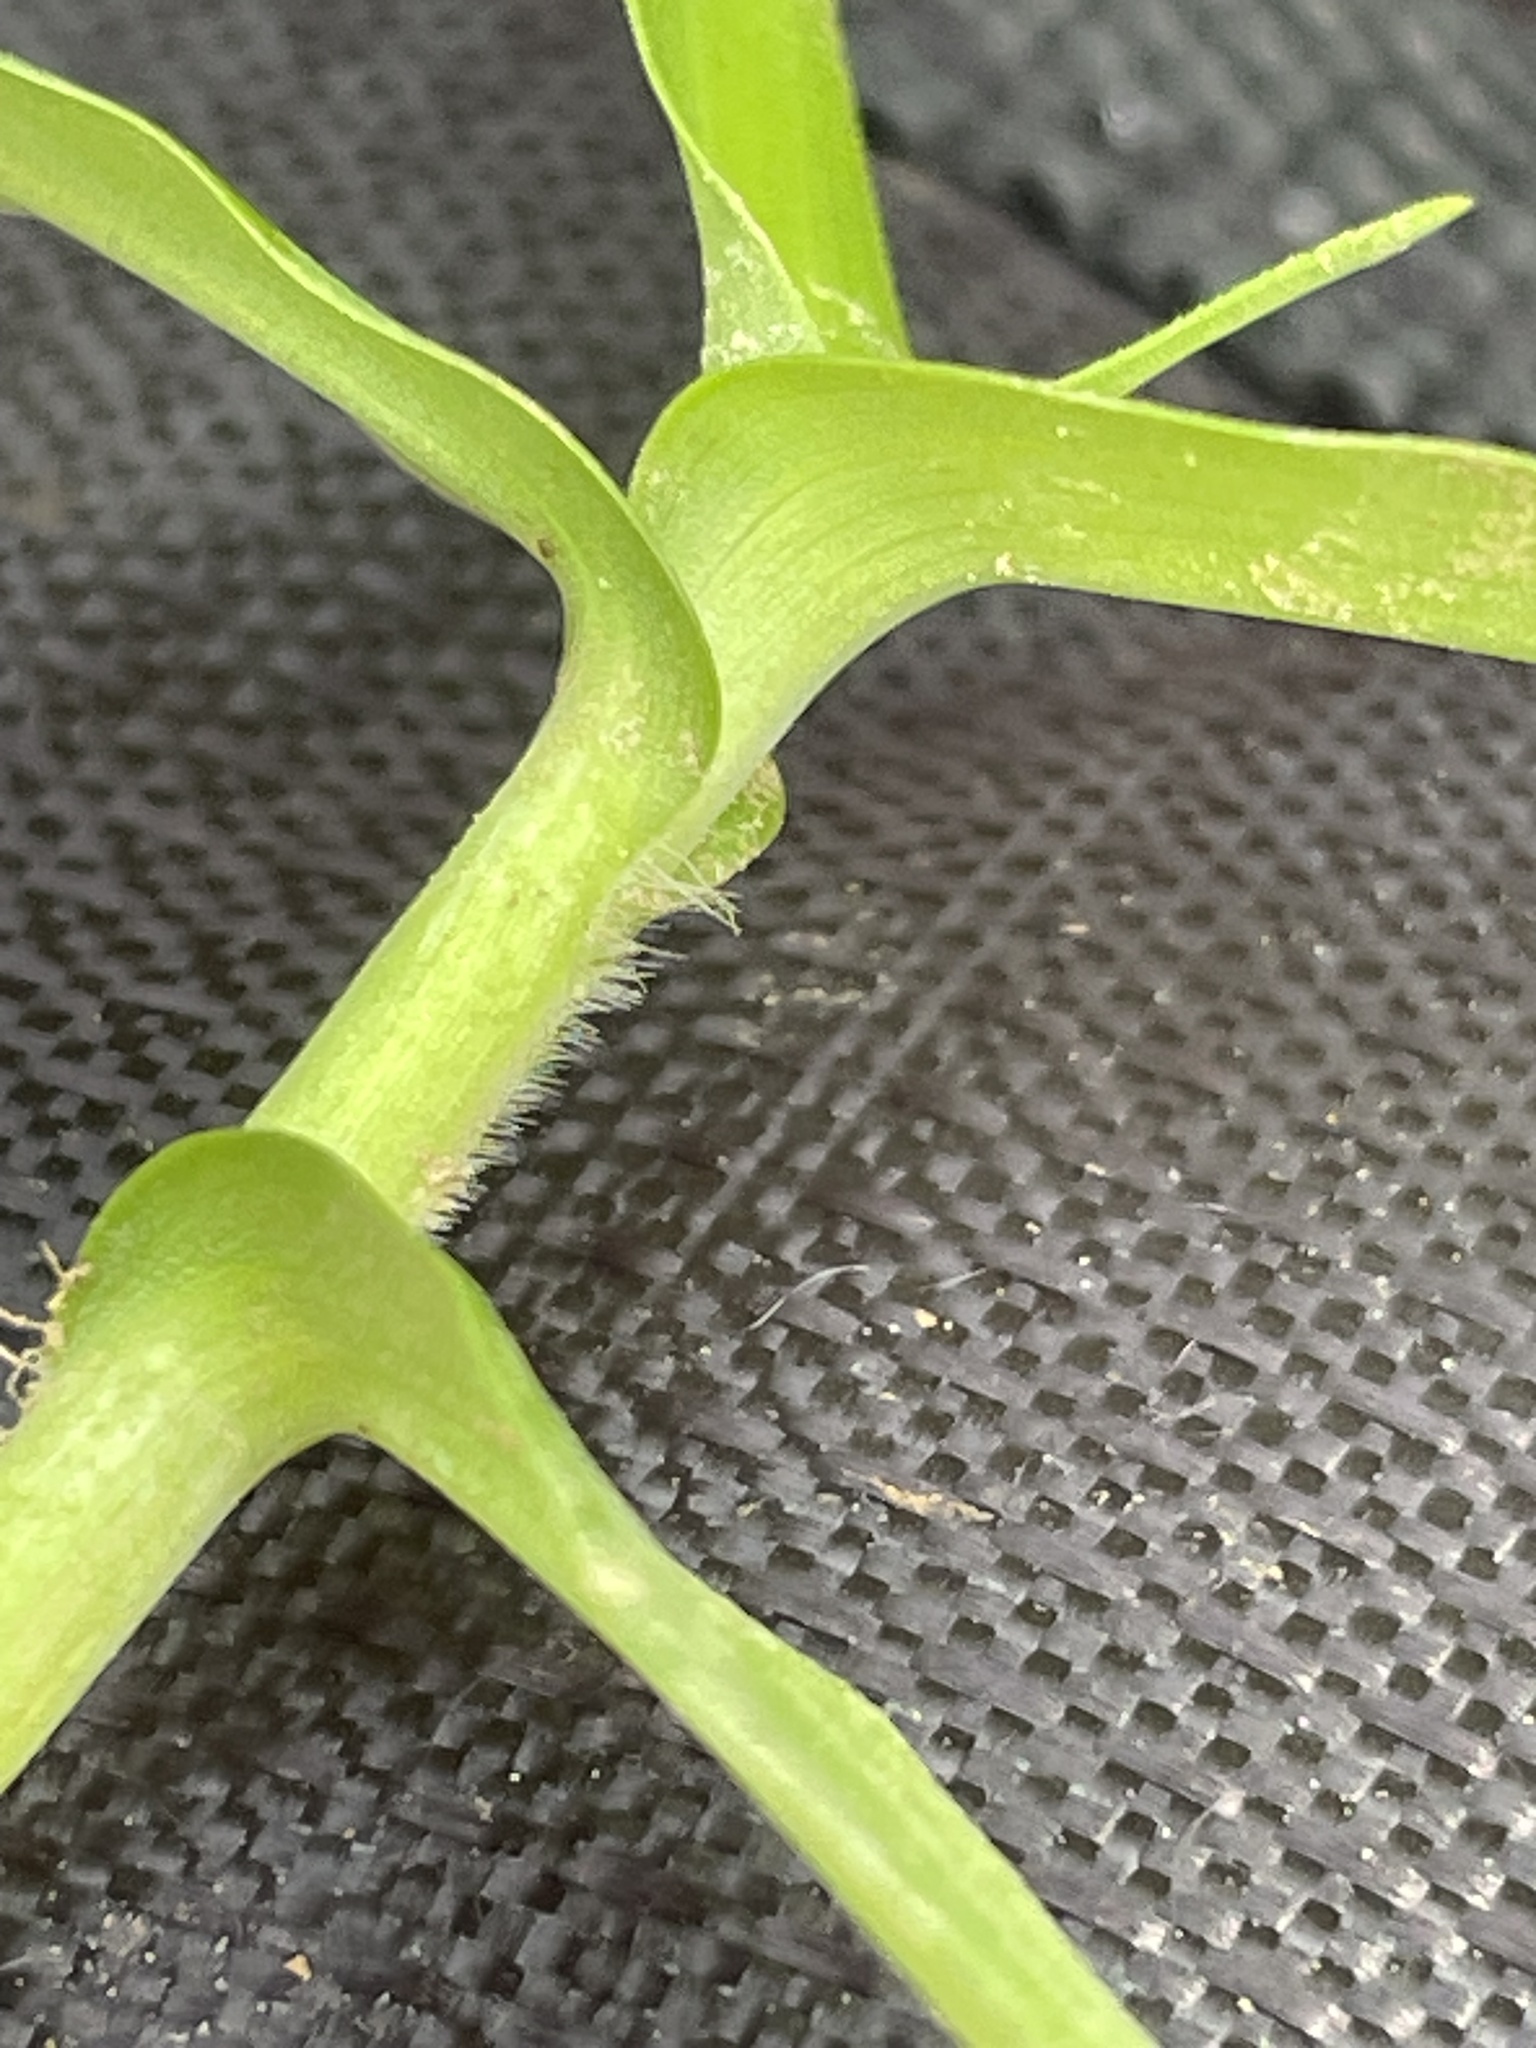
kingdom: Plantae
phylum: Tracheophyta
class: Liliopsida
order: Commelinales
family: Commelinaceae
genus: Murdannia
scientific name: Murdannia keisak
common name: Wartremoving herb
